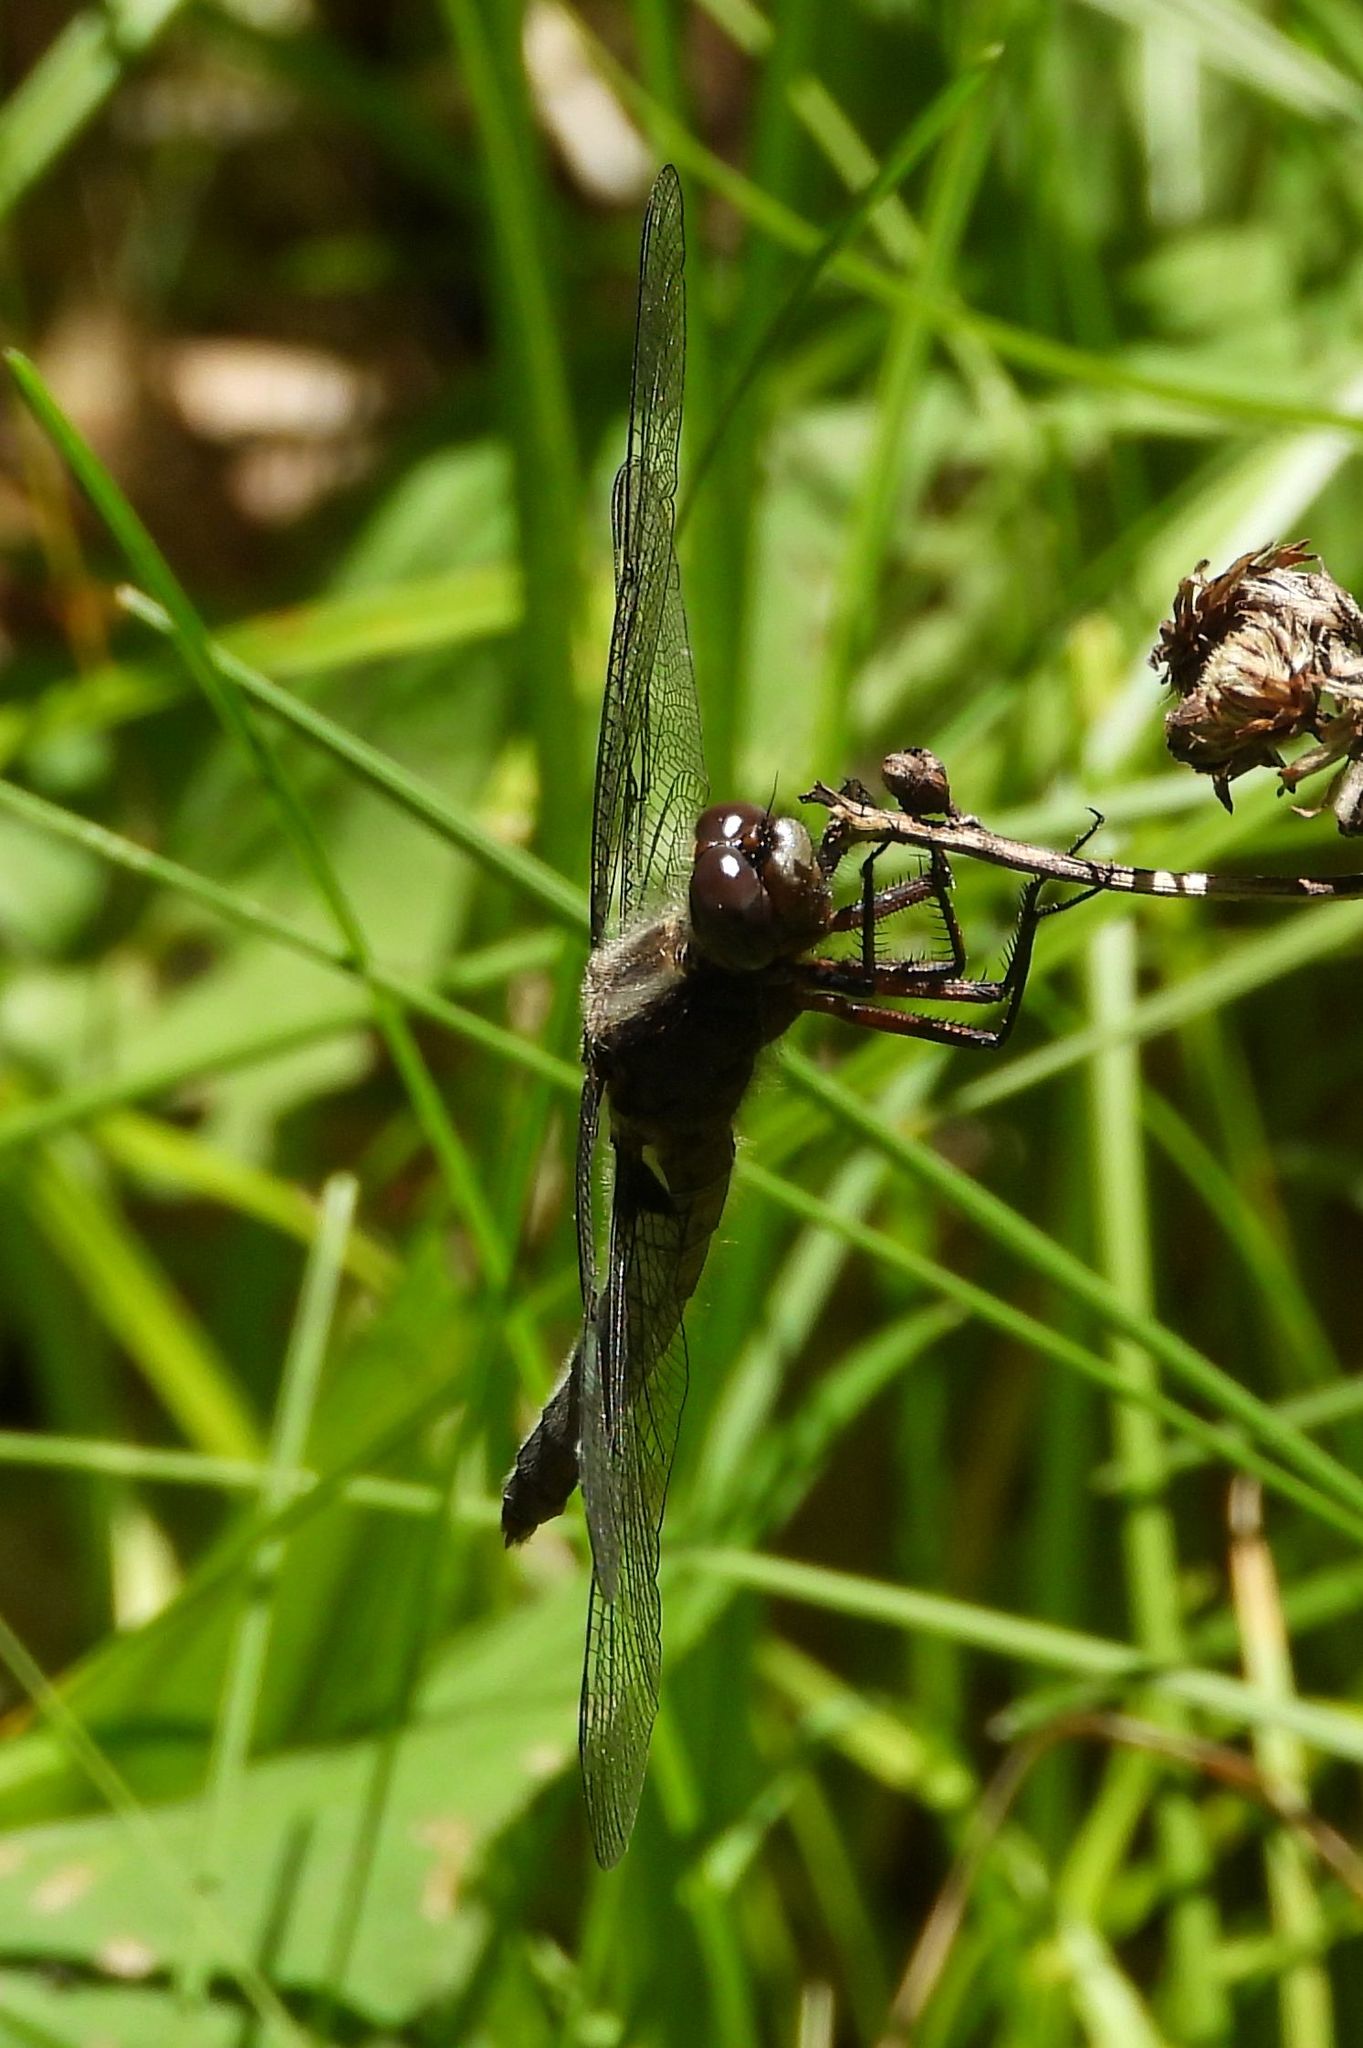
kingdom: Animalia
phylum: Arthropoda
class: Insecta
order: Odonata
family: Libellulidae
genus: Ladona
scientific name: Ladona julia
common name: Chalk-fronted corporal
